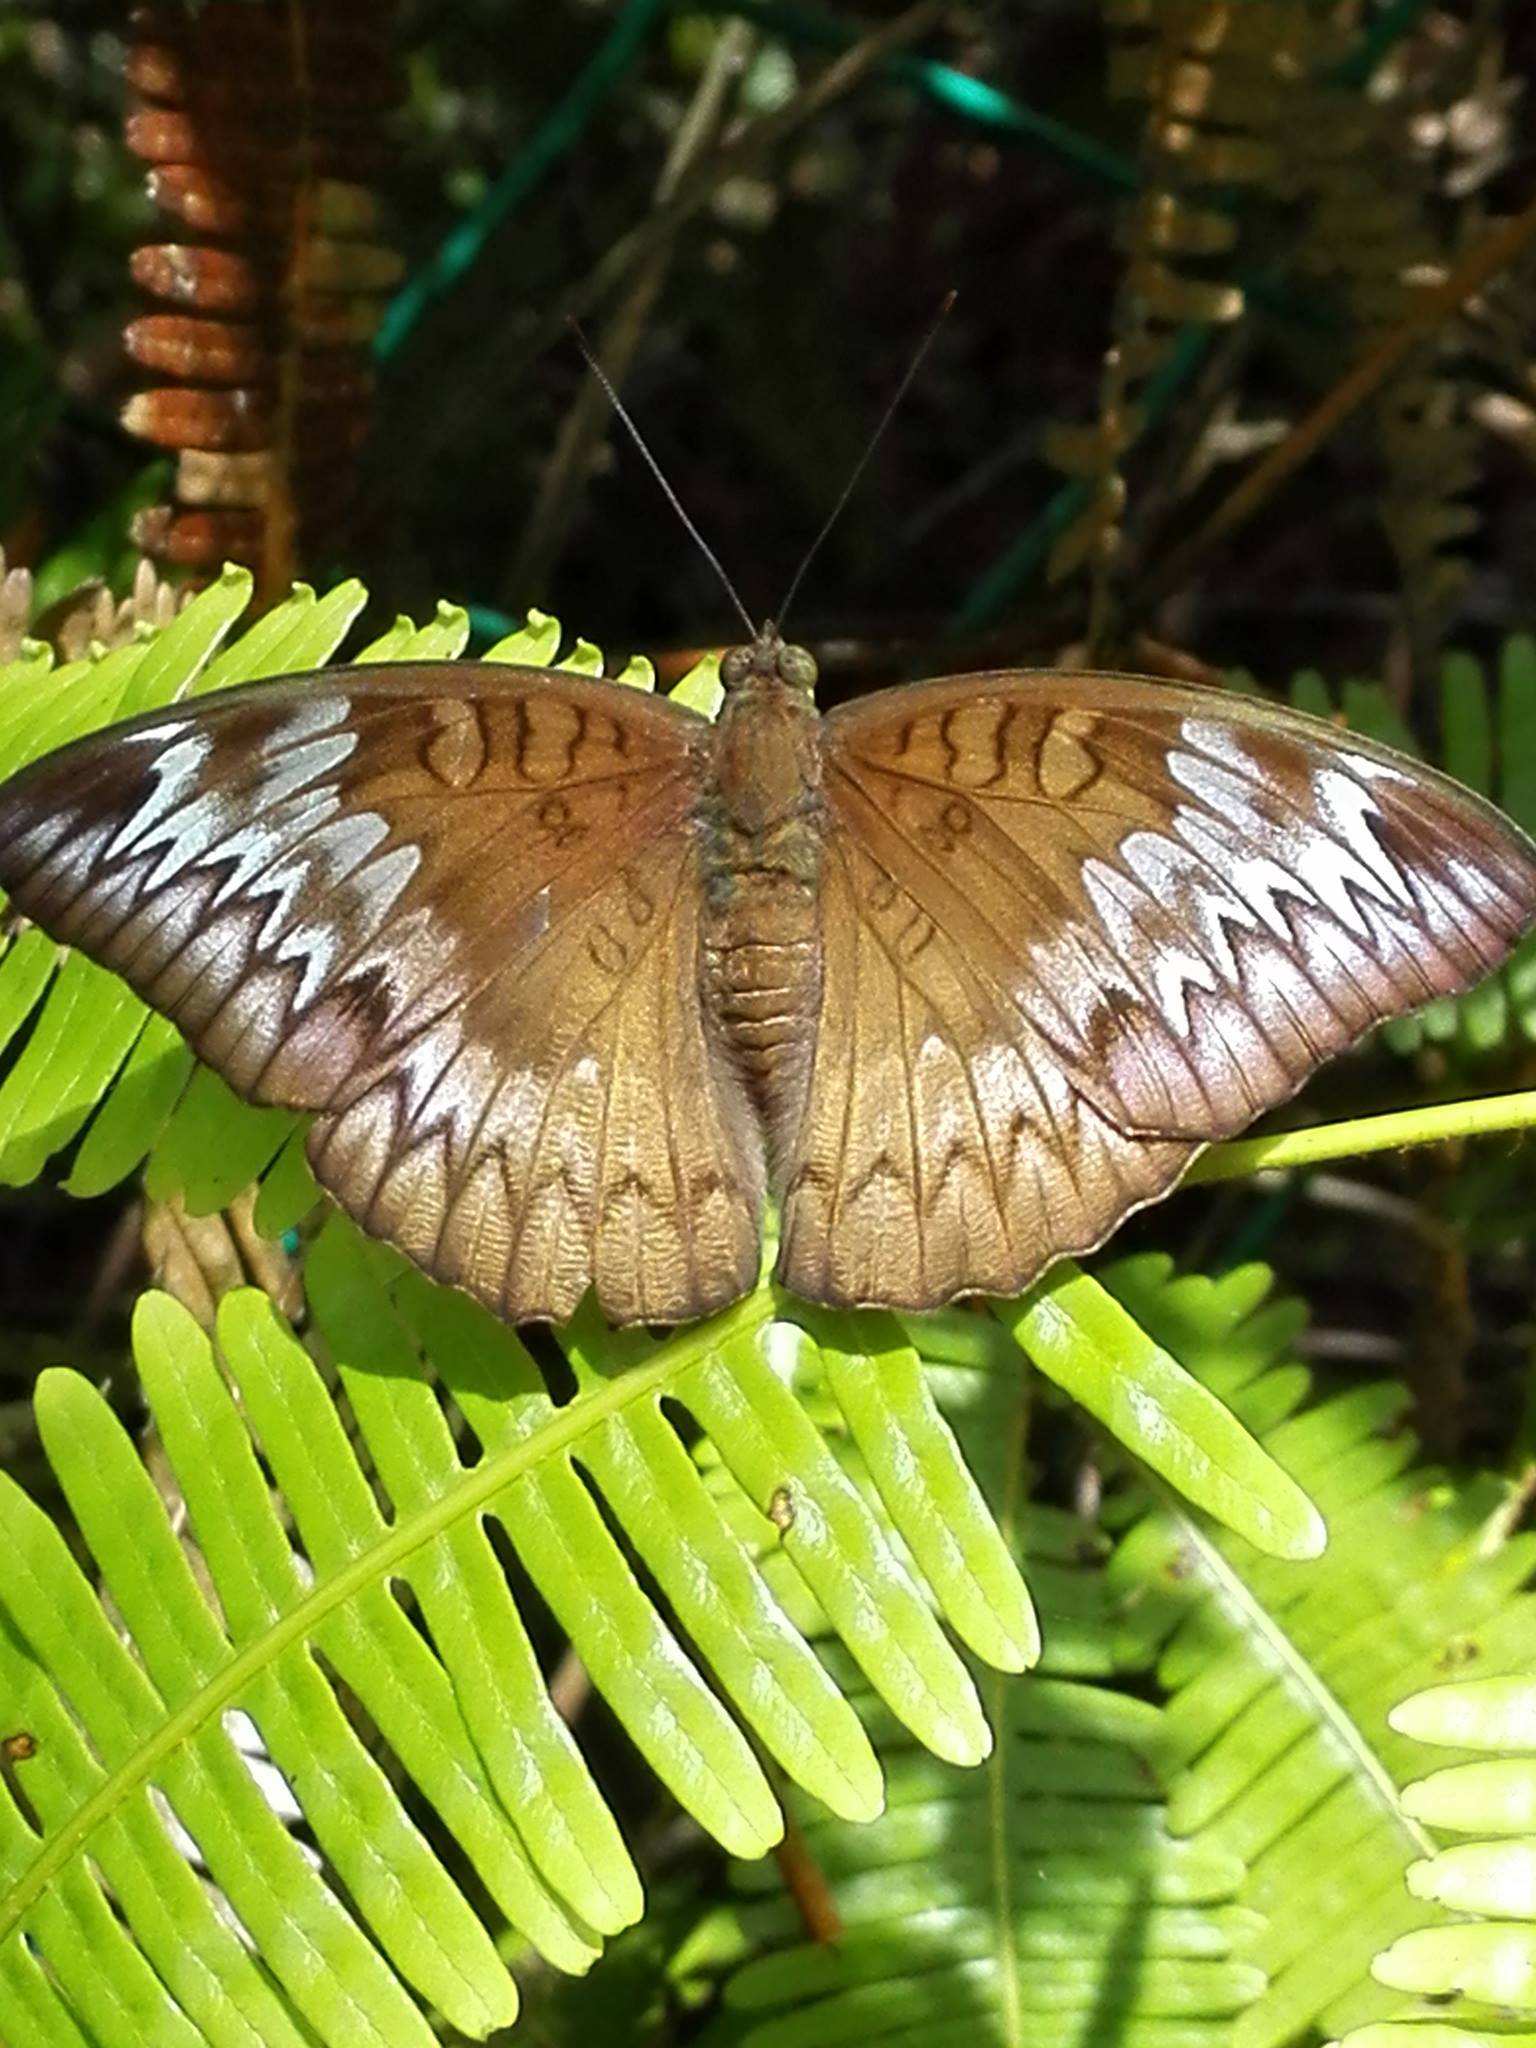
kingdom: Animalia
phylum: Arthropoda
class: Insecta
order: Lepidoptera
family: Nymphalidae
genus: Euthalia
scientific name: Euthalia monina
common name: Powdered baron
